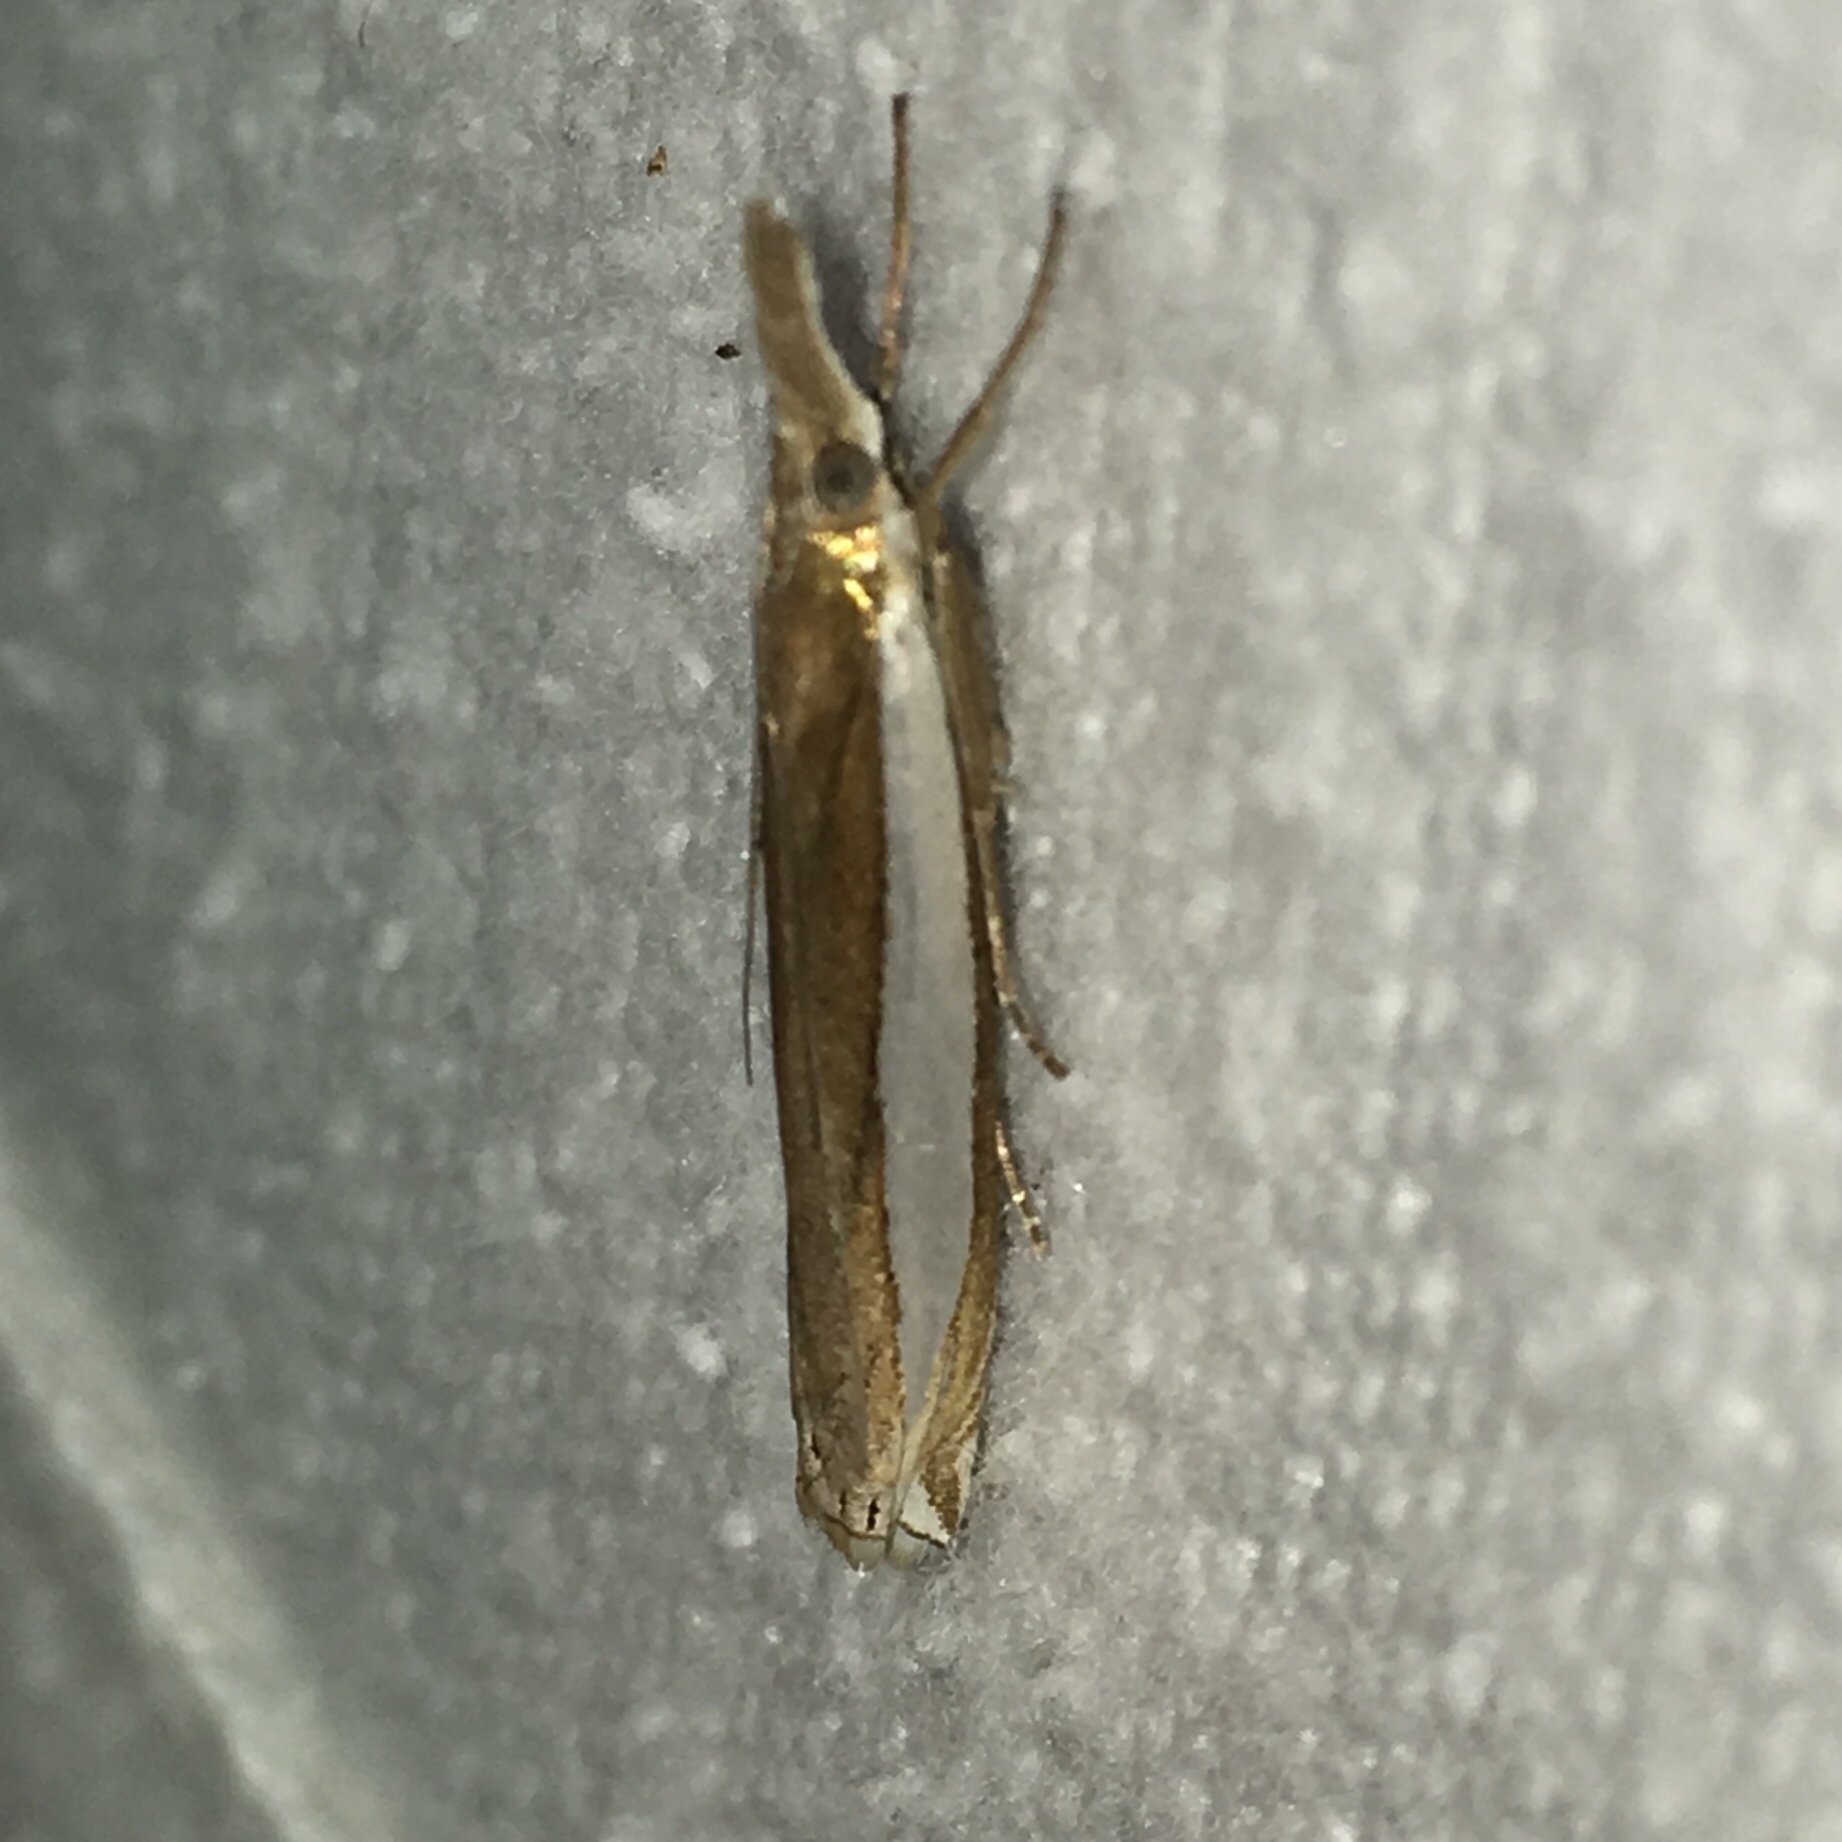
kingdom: Animalia
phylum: Arthropoda
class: Insecta
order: Lepidoptera
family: Crambidae
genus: Crambus
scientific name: Crambus leachellus
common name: Leach's grass-veneer
